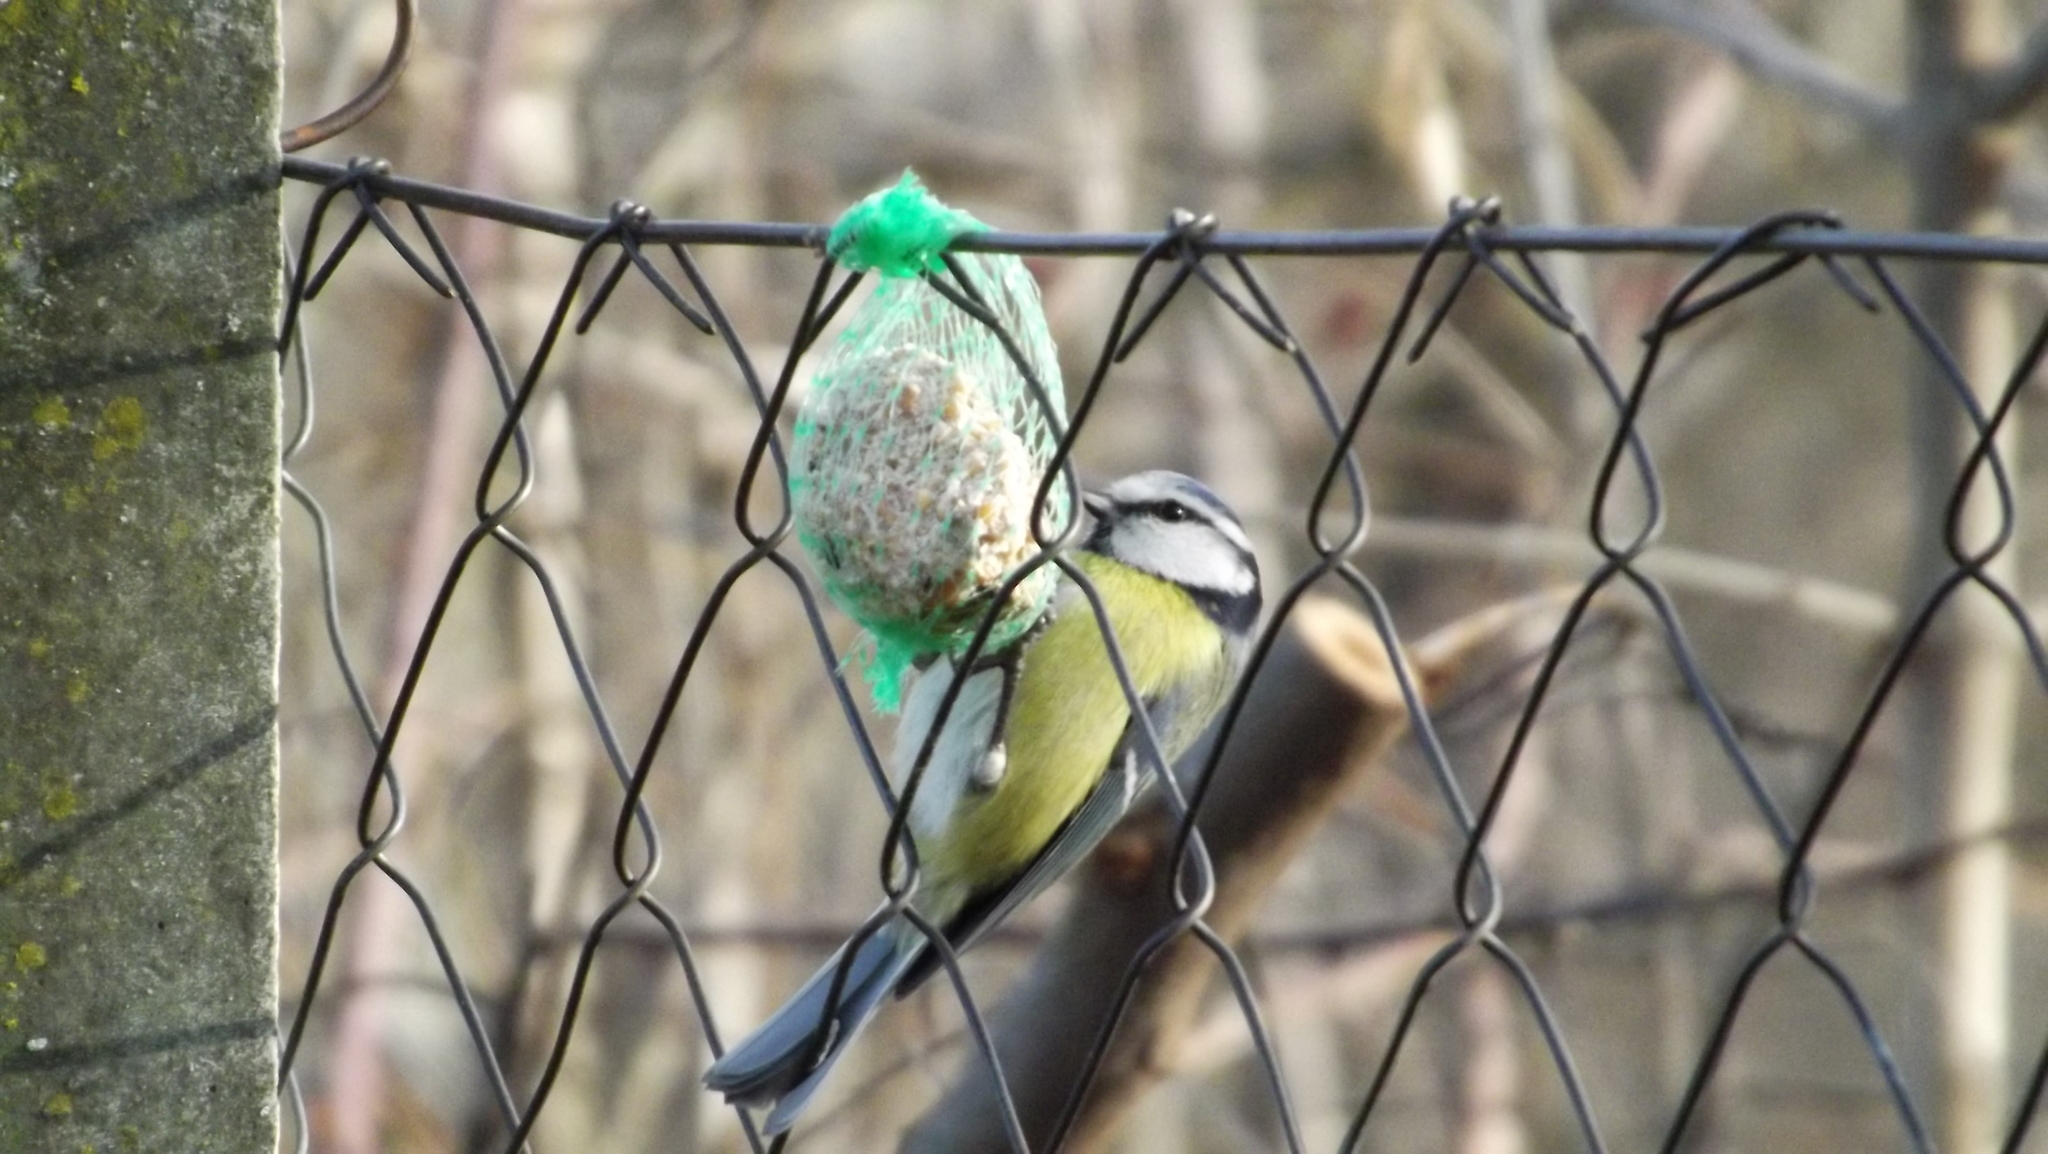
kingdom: Animalia
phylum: Chordata
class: Aves
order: Passeriformes
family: Paridae
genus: Cyanistes
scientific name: Cyanistes caeruleus
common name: Eurasian blue tit
